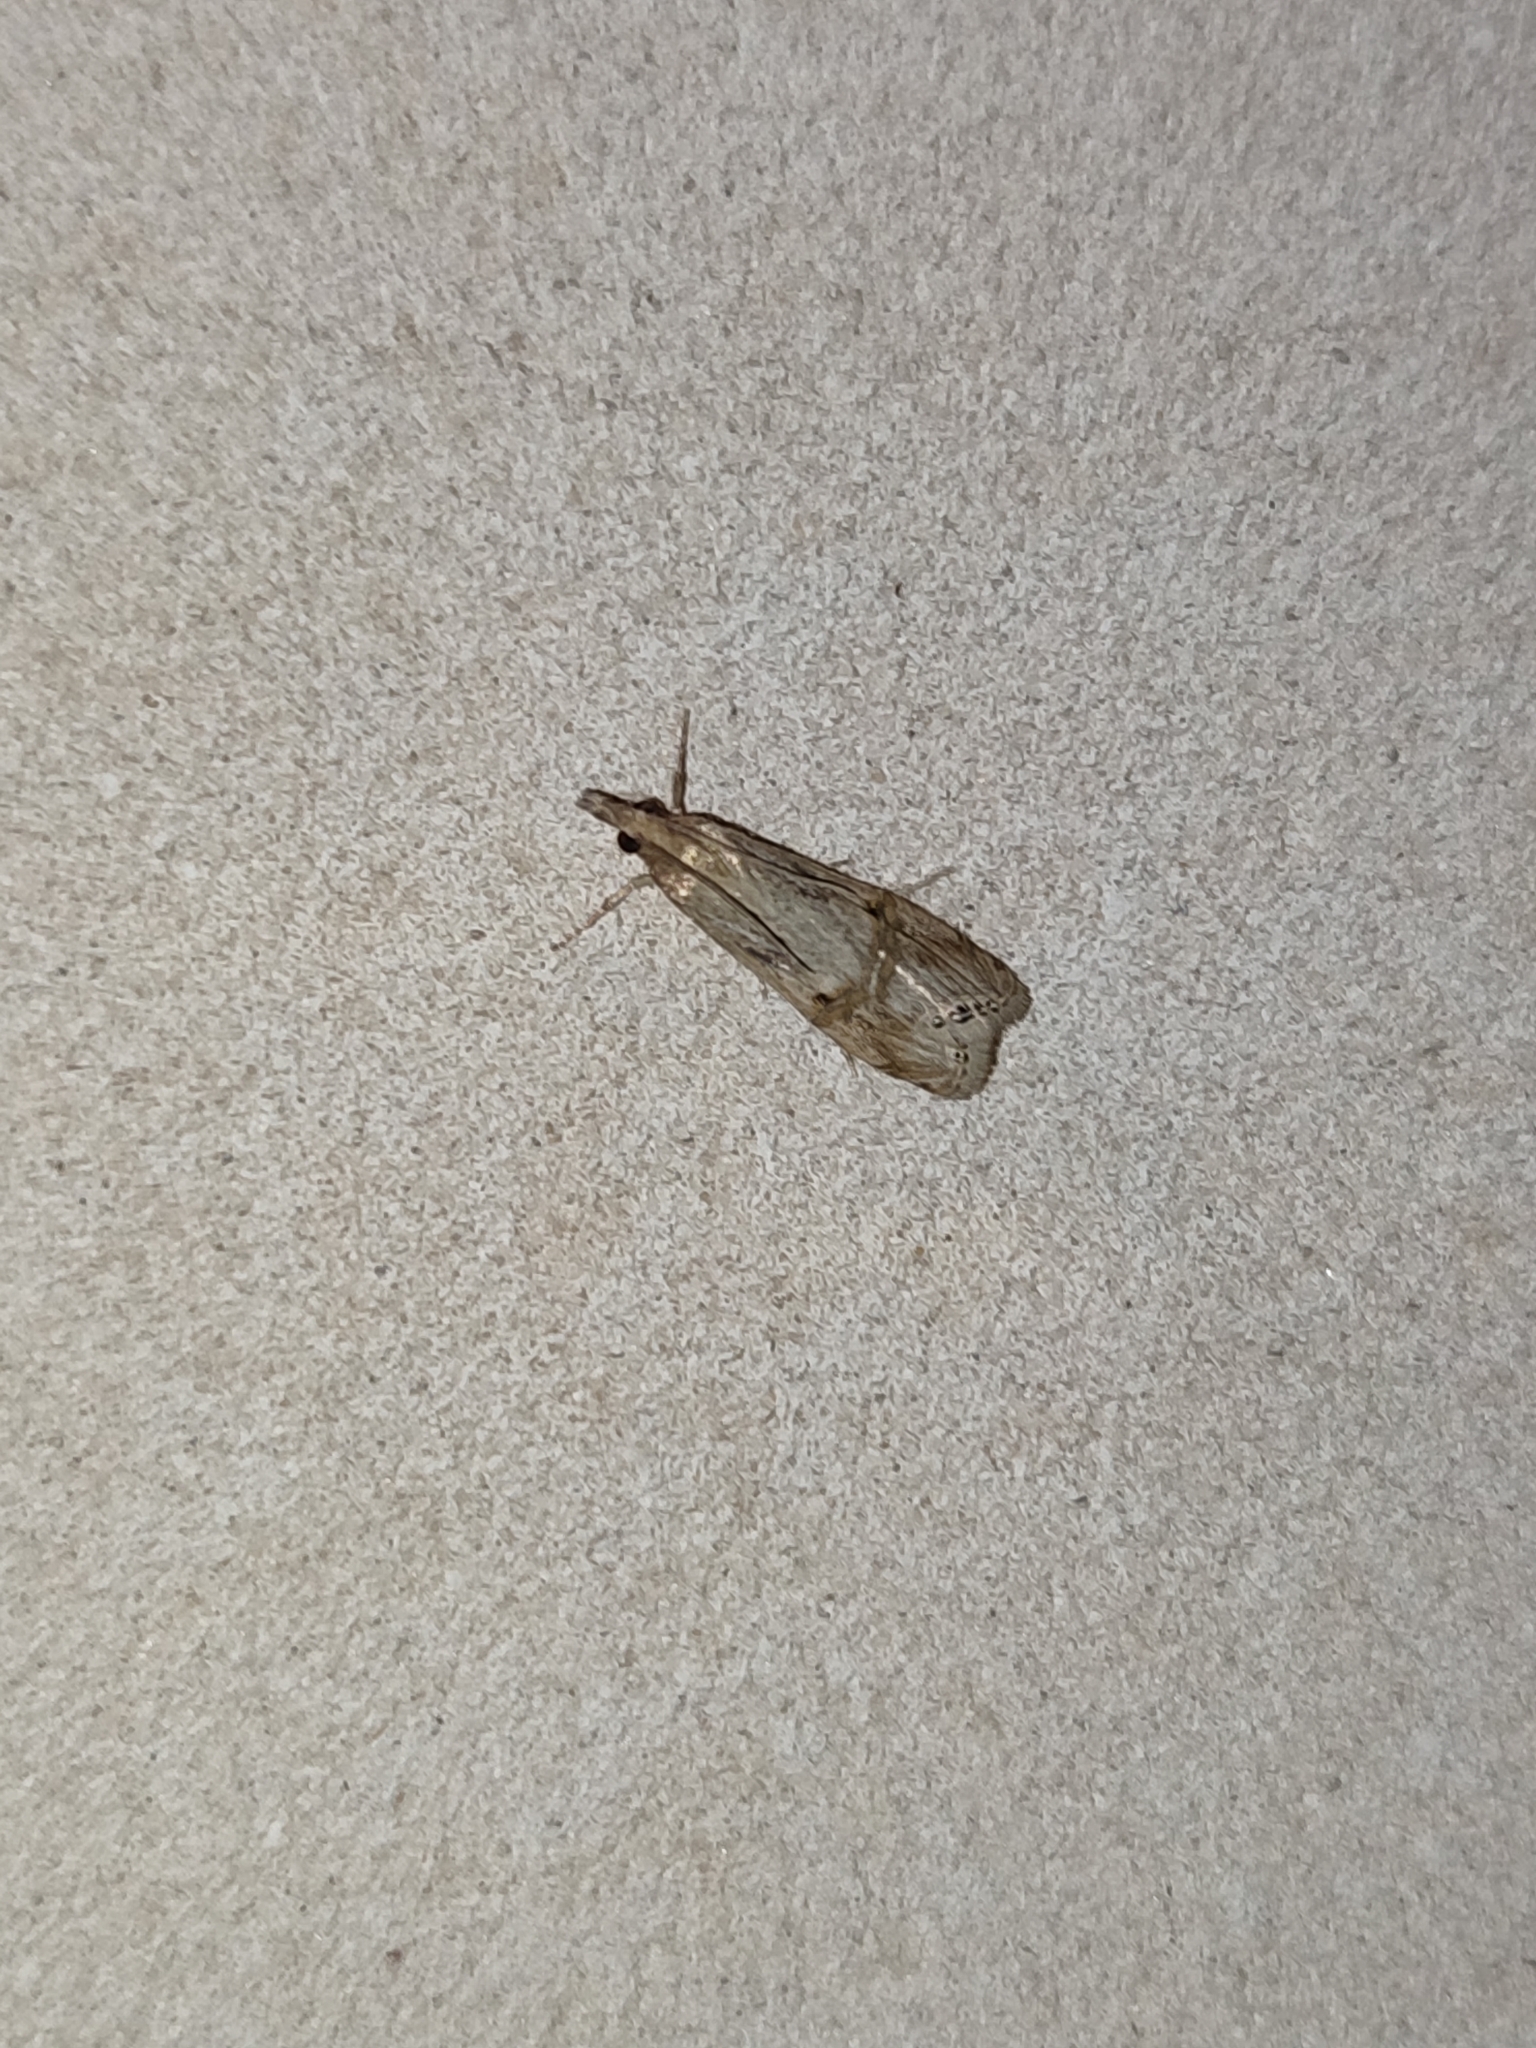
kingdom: Animalia
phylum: Arthropoda
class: Insecta
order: Lepidoptera
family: Crambidae
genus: Euchromius
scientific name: Euchromius ocellea
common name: Necklace veneer moth
